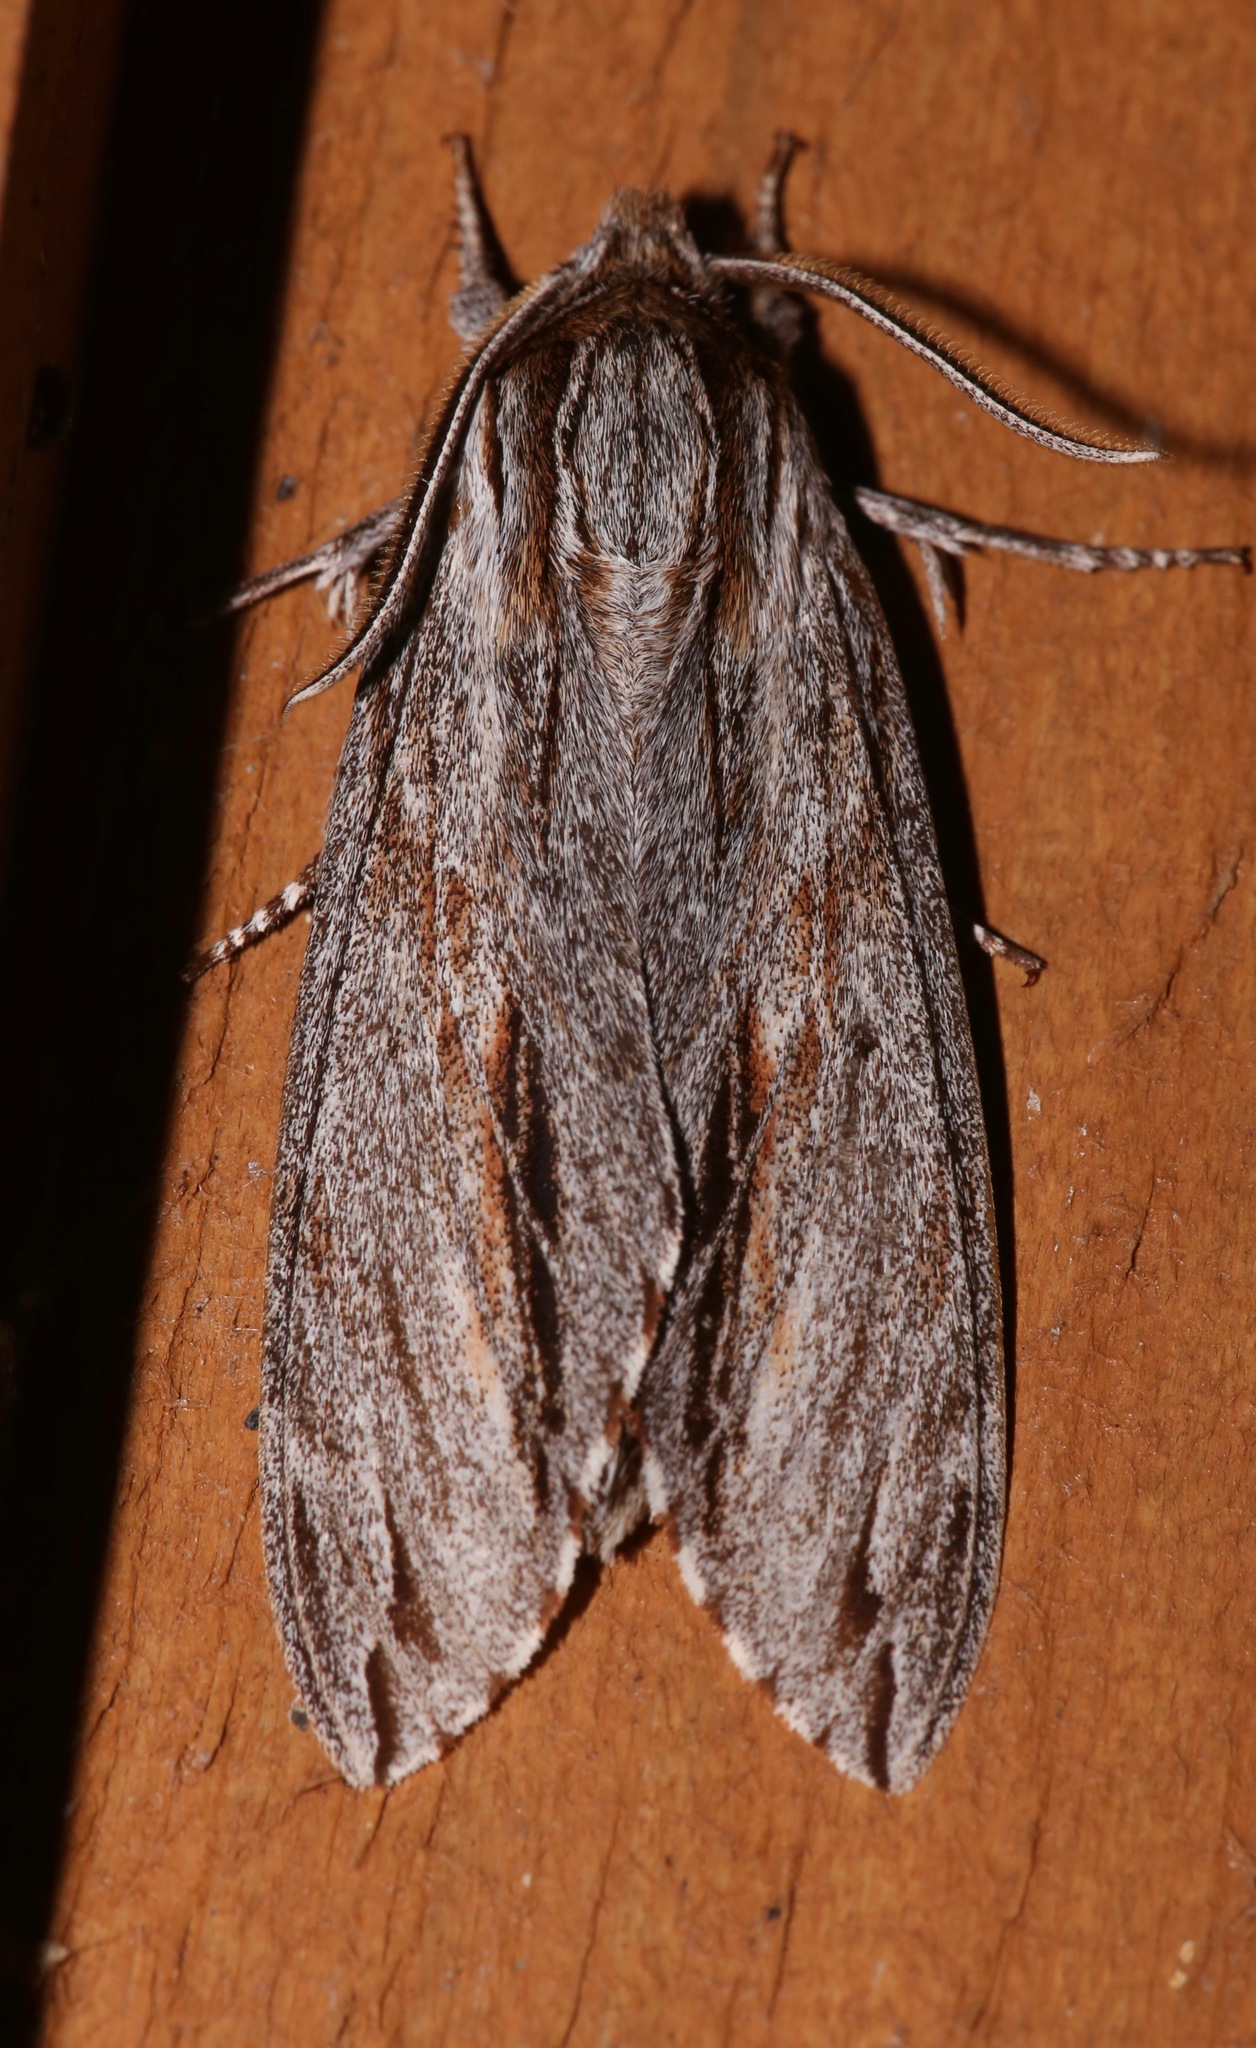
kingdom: Animalia
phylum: Arthropoda
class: Insecta
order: Lepidoptera
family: Sphingidae
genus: Isoparce
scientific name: Isoparce cupressi
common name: Cypress sphinx
